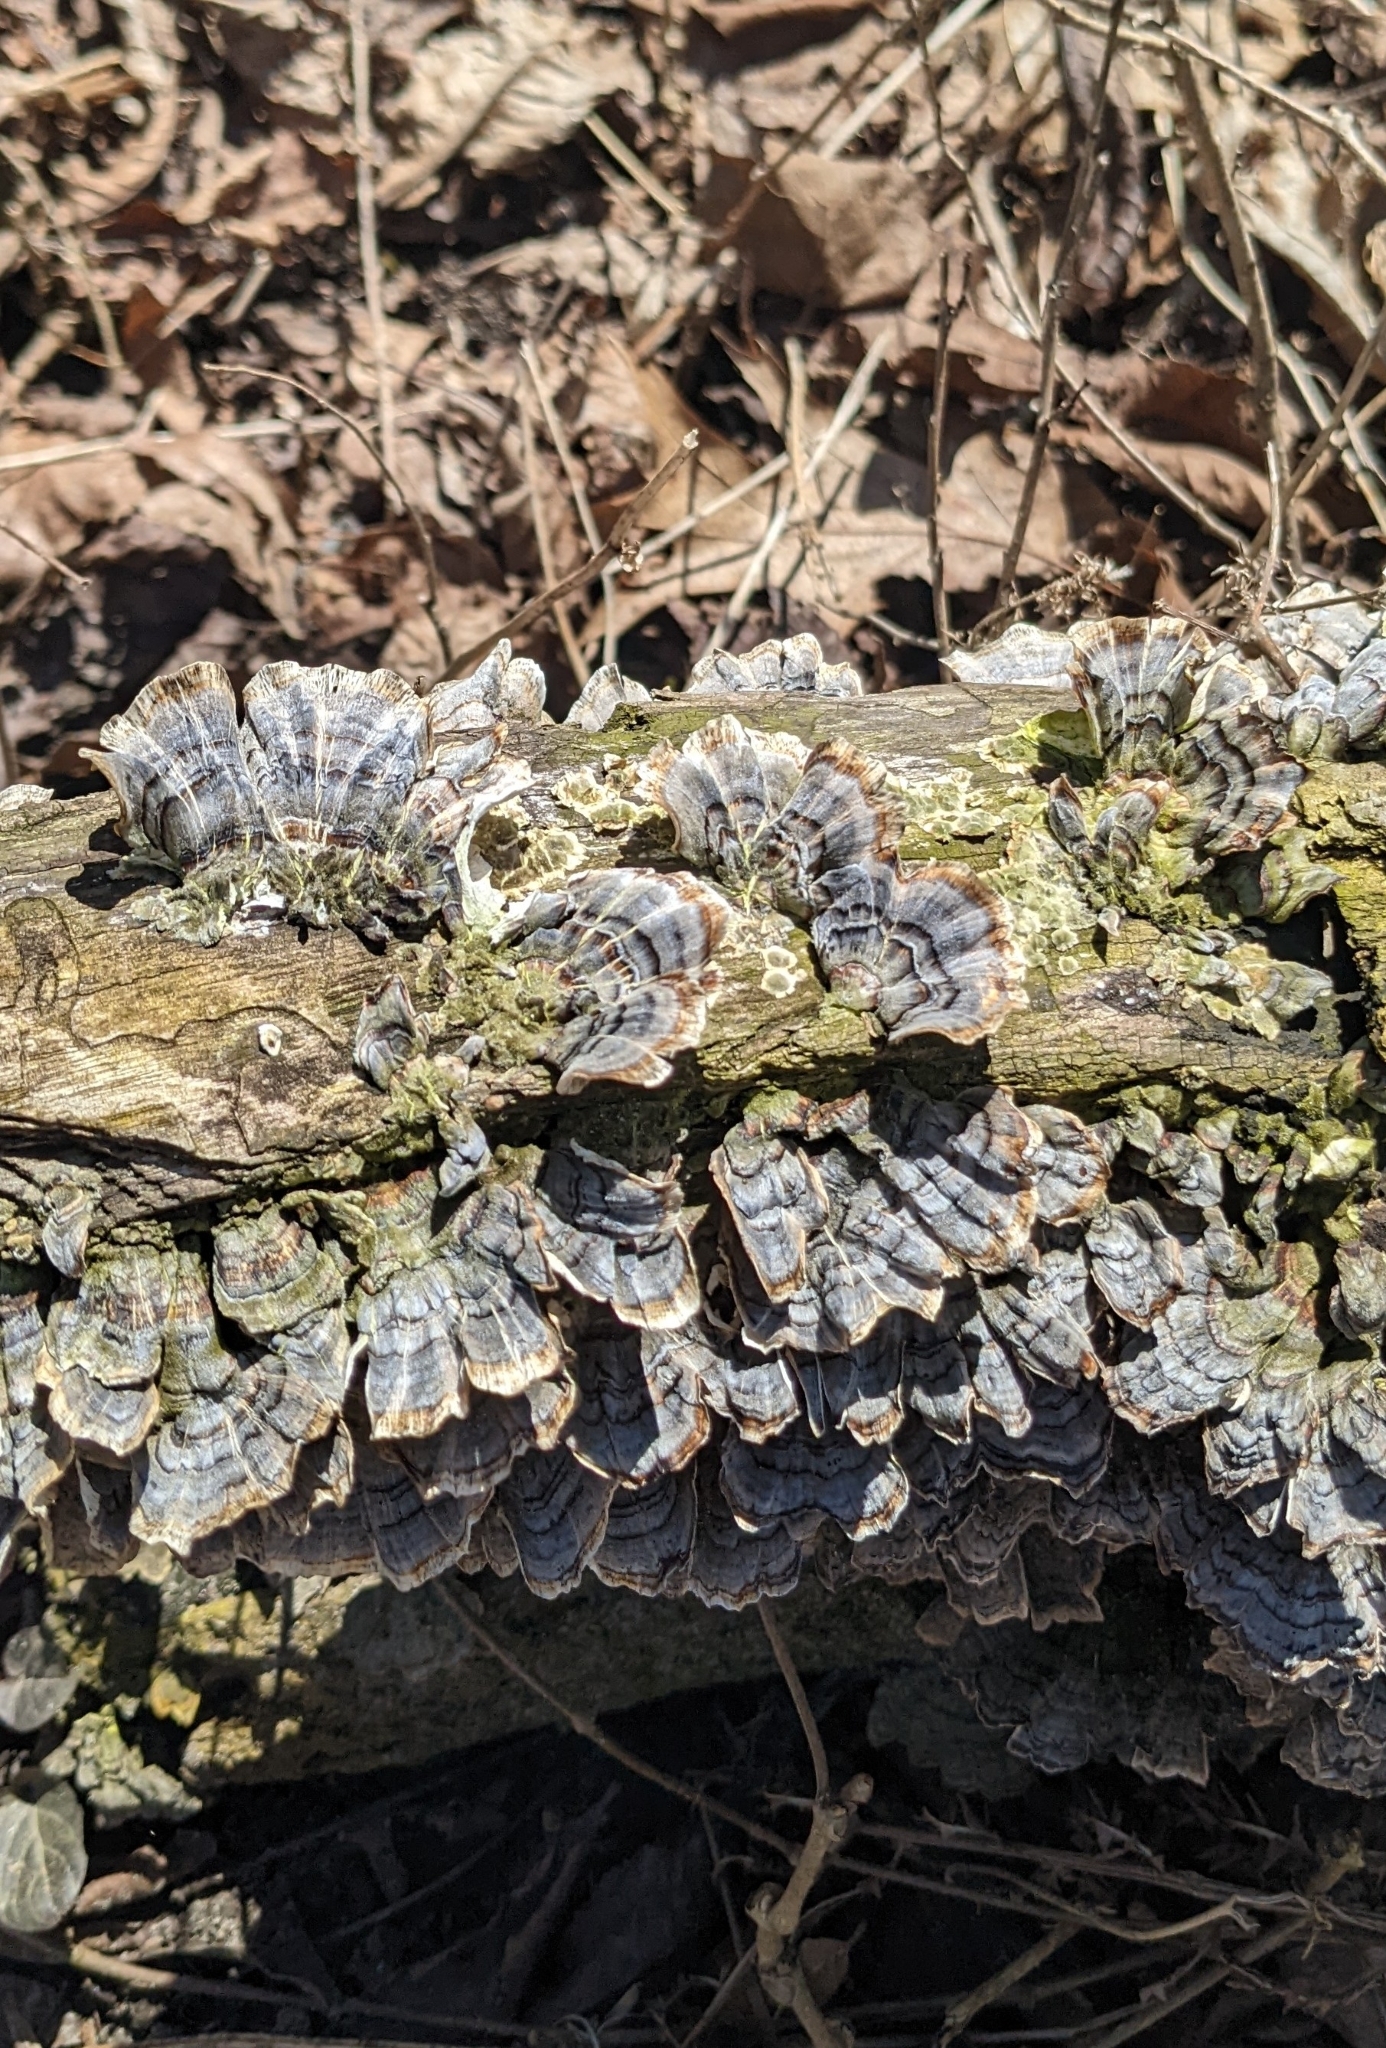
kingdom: Fungi
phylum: Basidiomycota
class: Agaricomycetes
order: Polyporales
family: Polyporaceae
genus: Trametes
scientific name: Trametes versicolor
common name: Turkeytail
